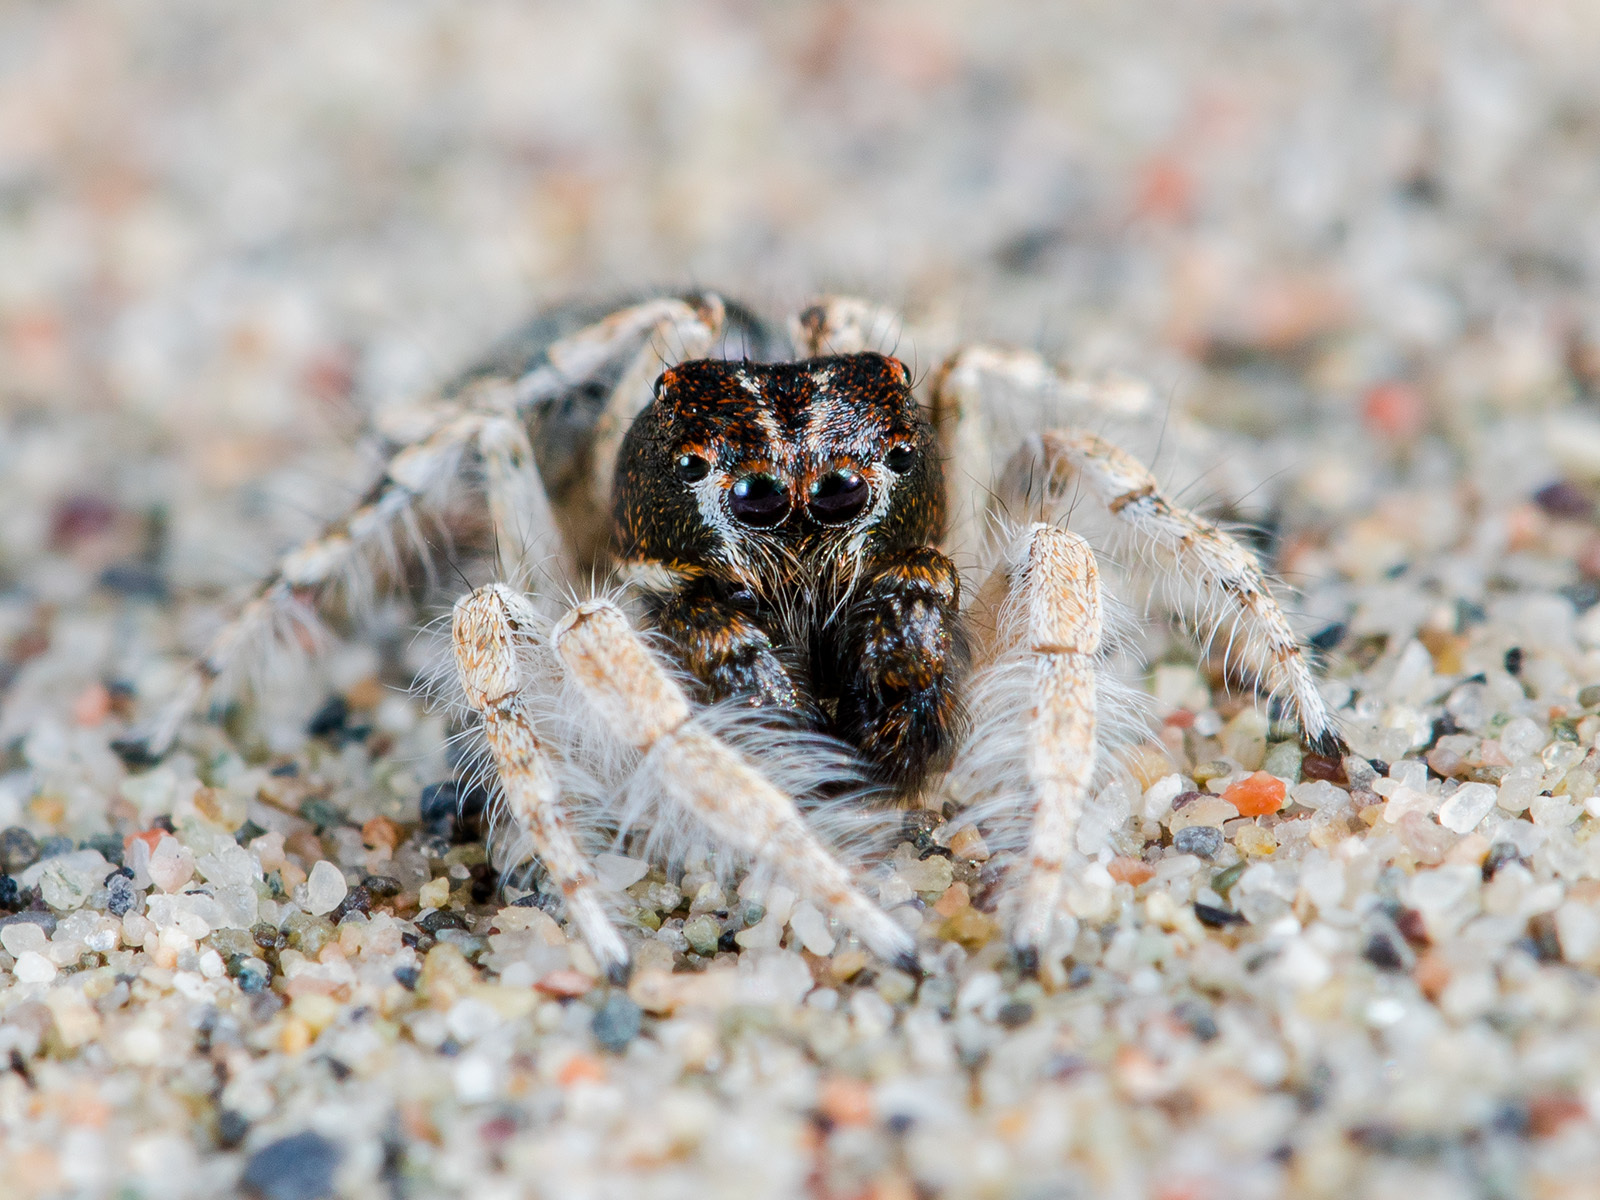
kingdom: Animalia
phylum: Arthropoda
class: Arachnida
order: Araneae
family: Salticidae
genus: Yllenus
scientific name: Yllenus uiguricus
